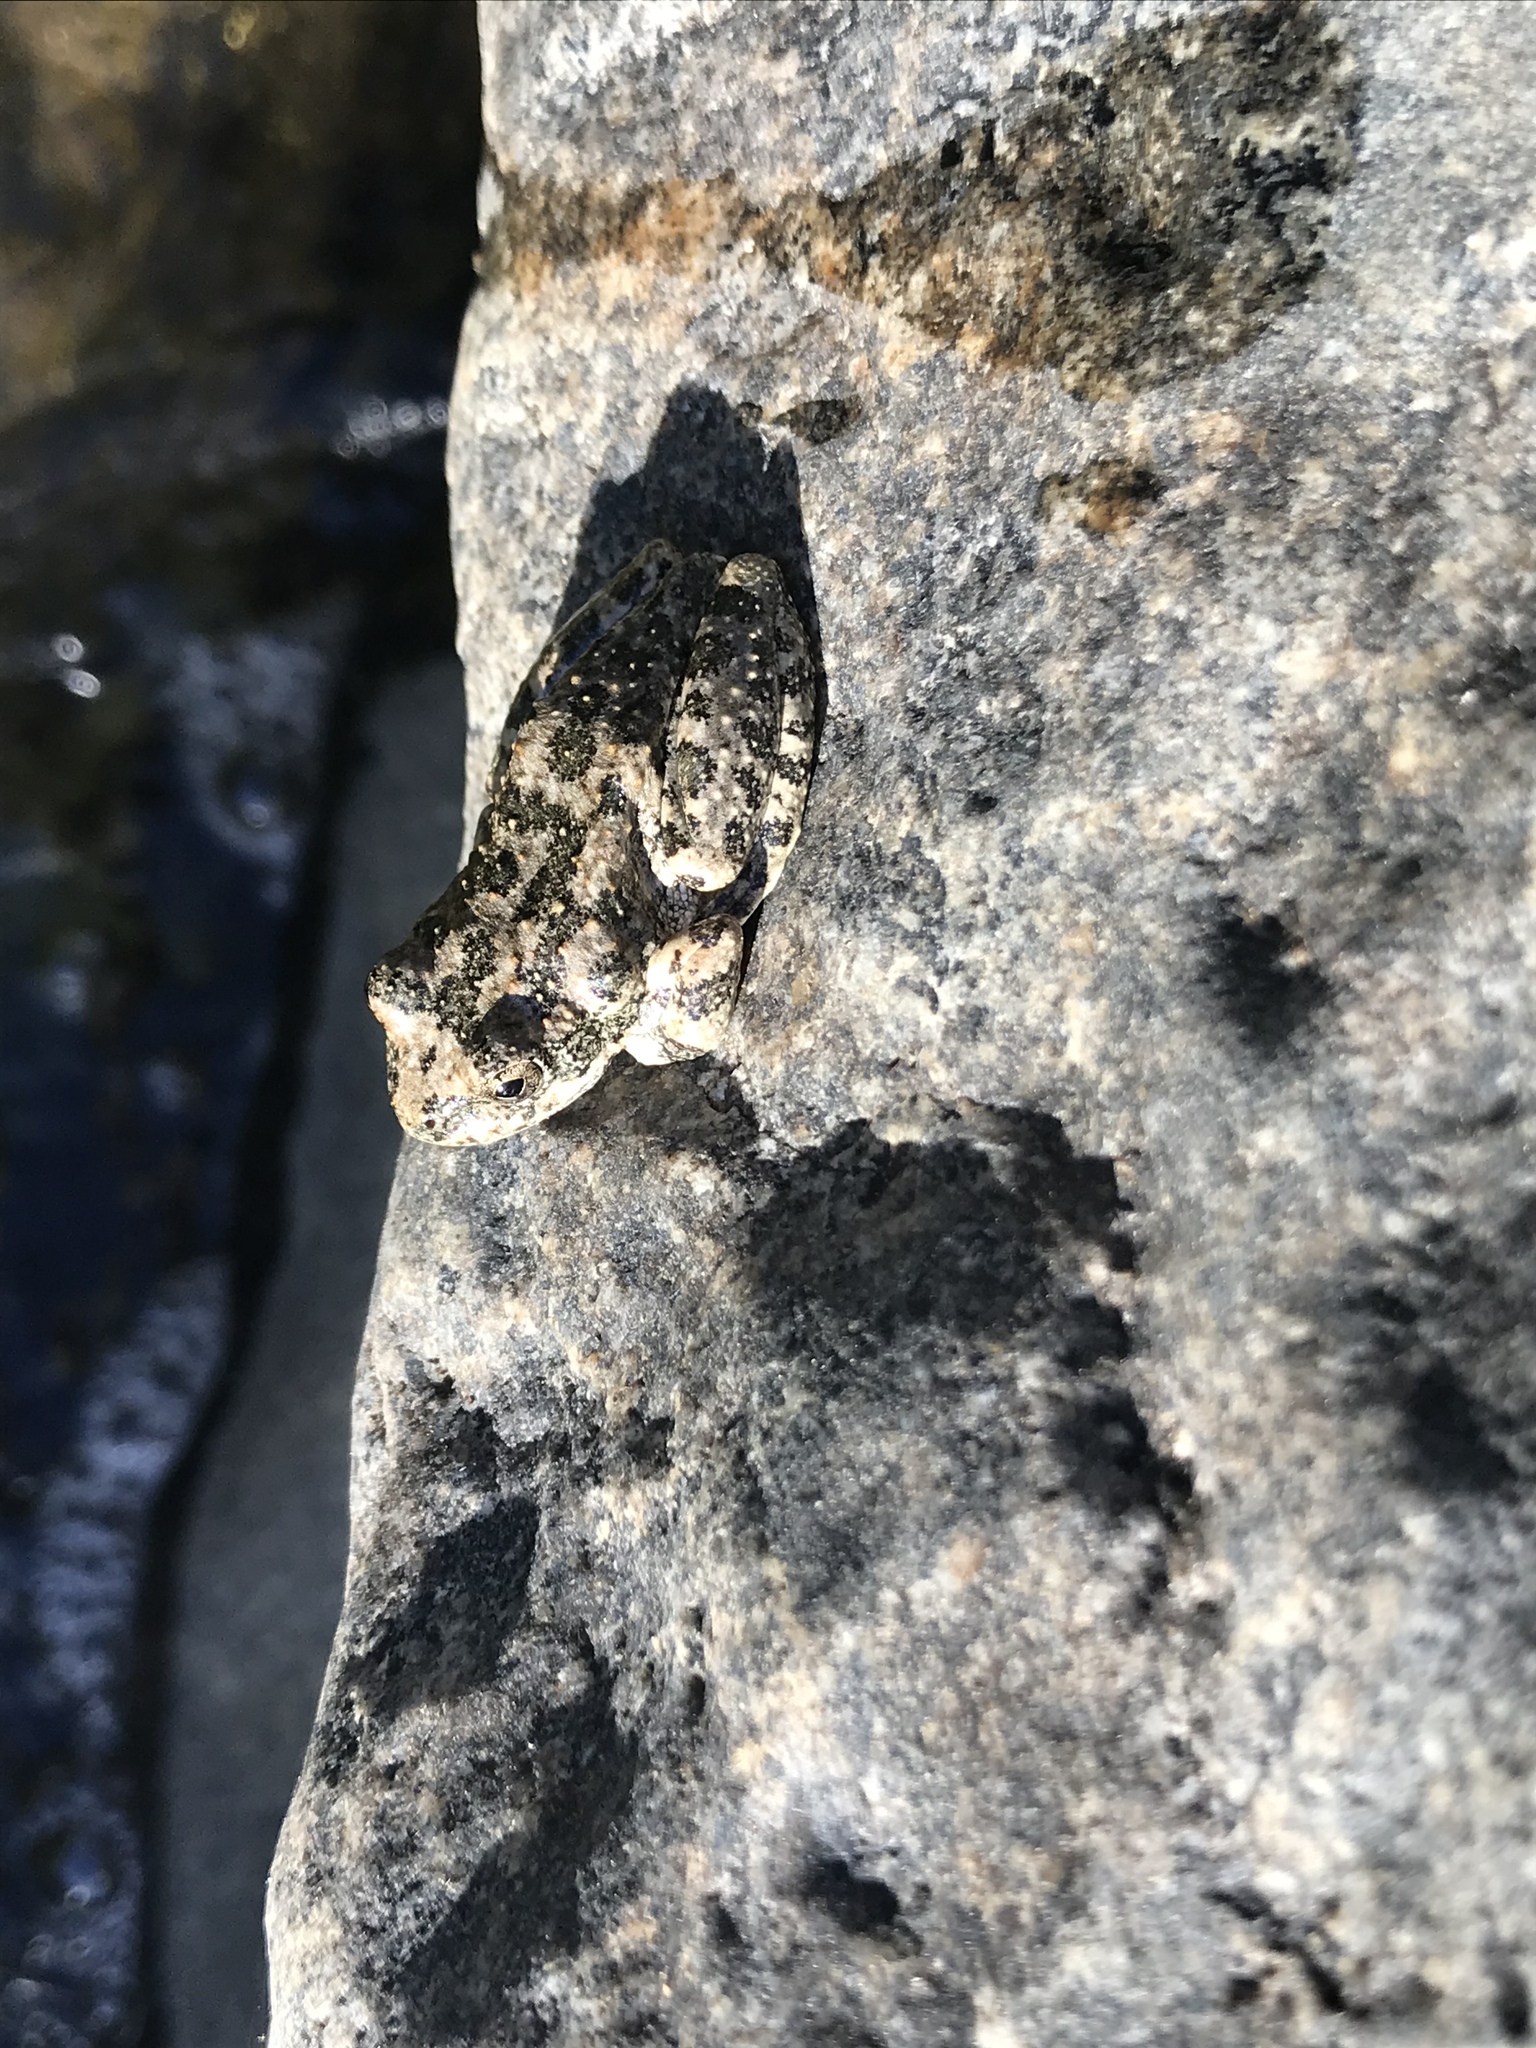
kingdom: Animalia
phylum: Chordata
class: Amphibia
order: Anura
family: Hylidae
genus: Pseudacris
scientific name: Pseudacris cadaverina
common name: California chorus frog
